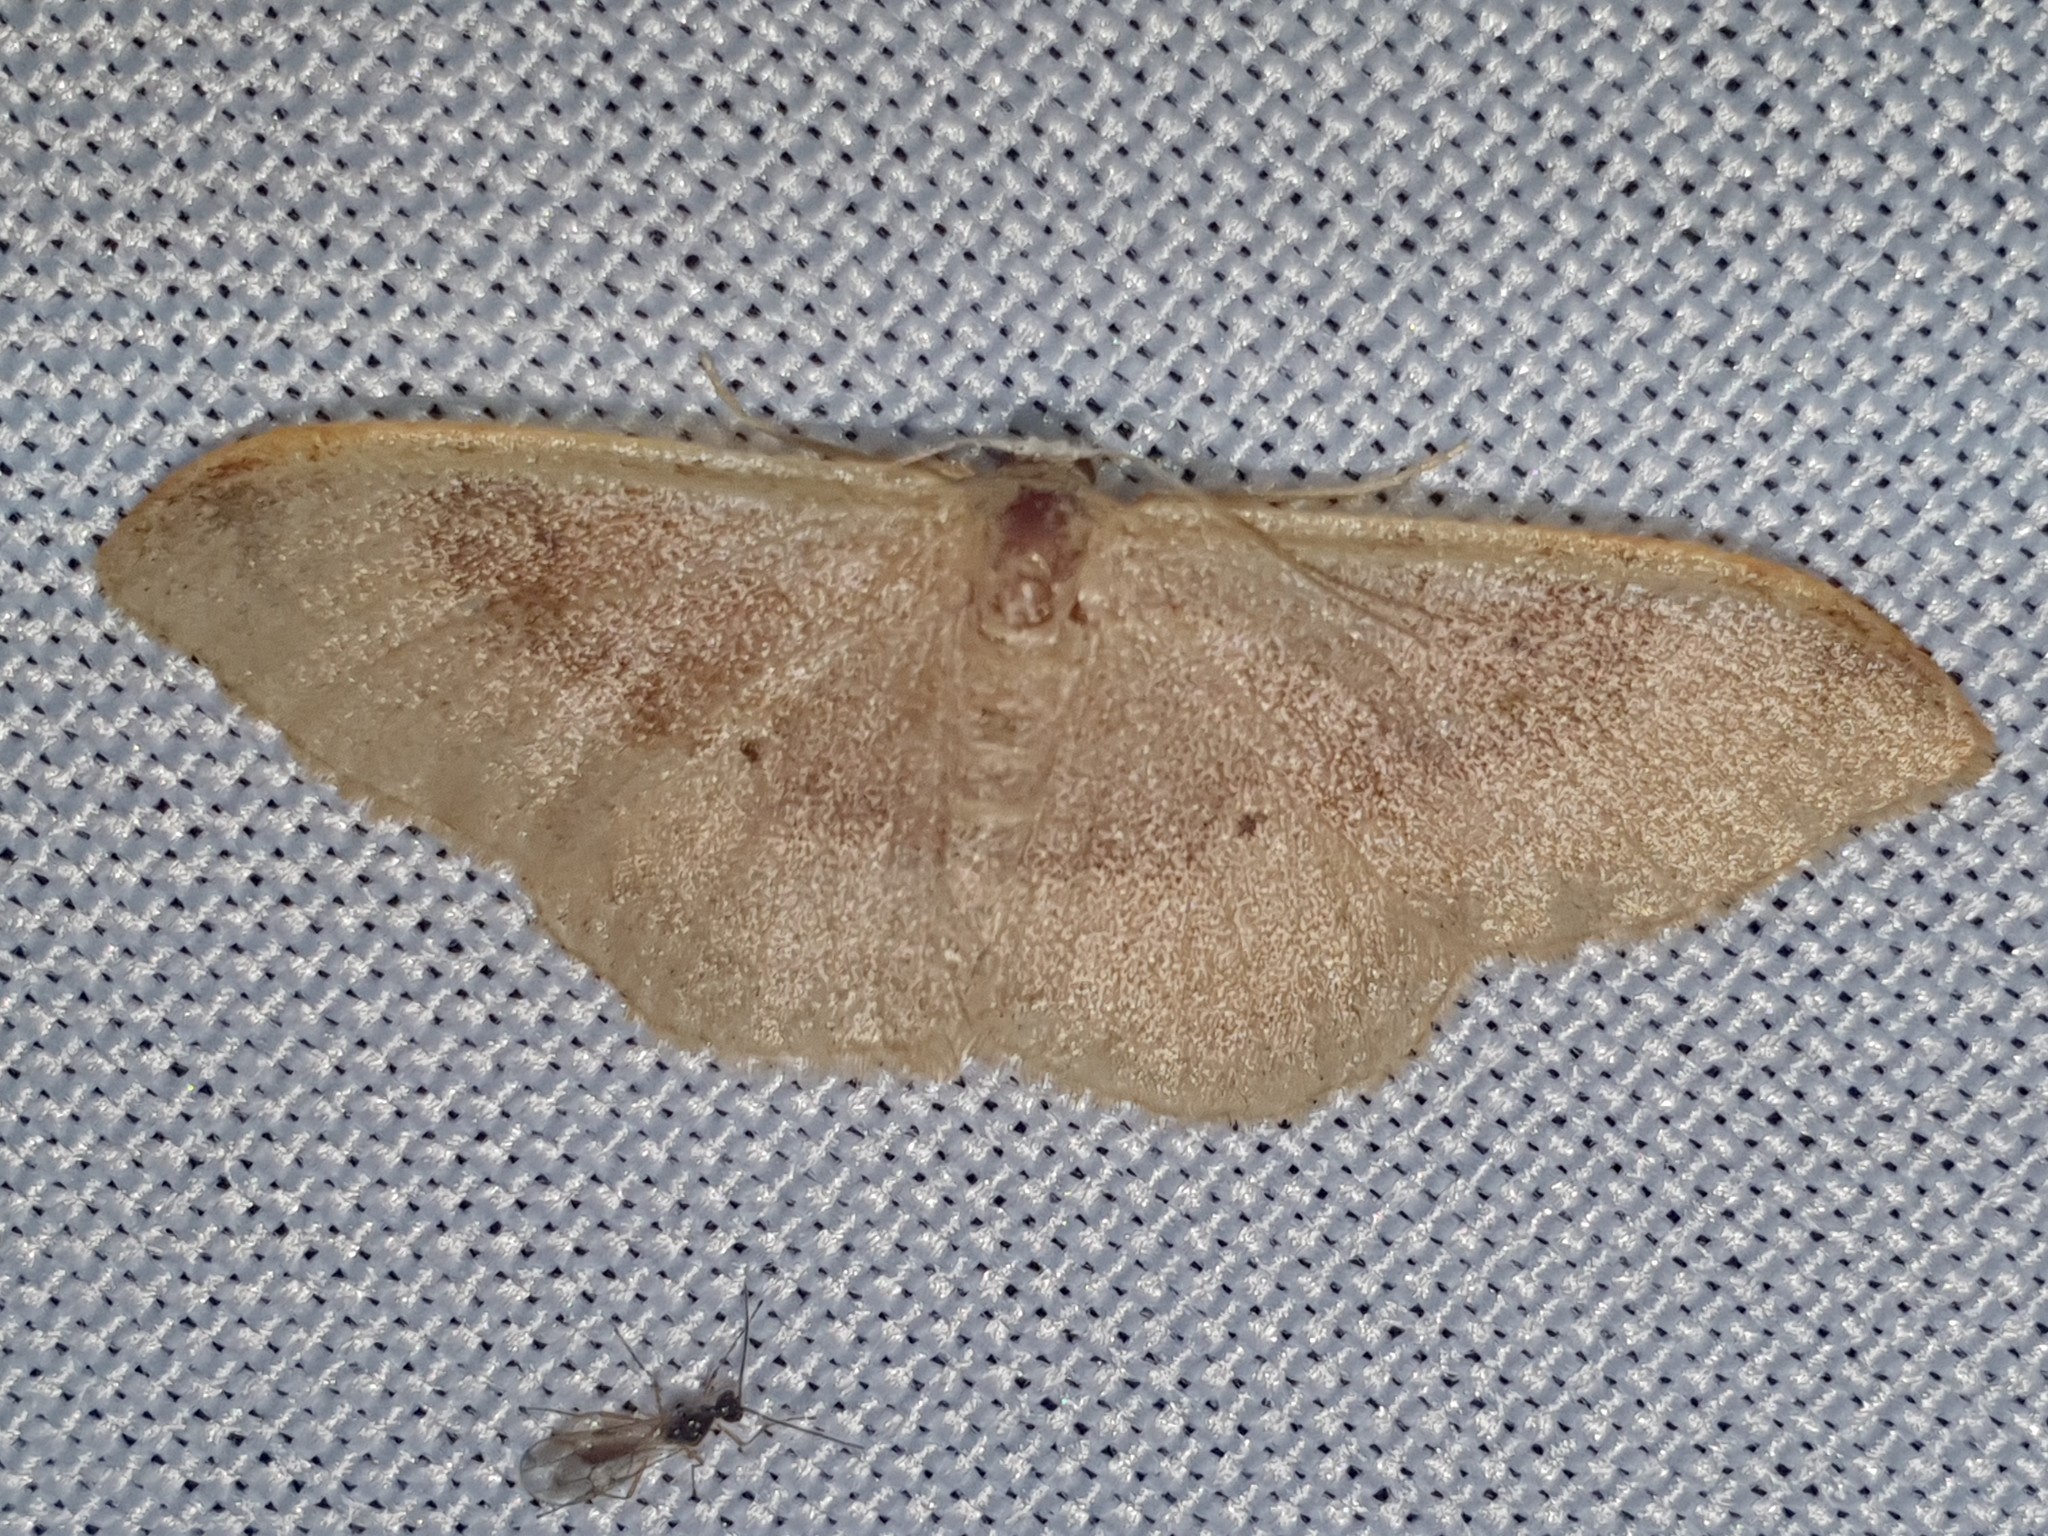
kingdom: Animalia
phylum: Arthropoda
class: Insecta
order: Lepidoptera
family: Geometridae
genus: Idaea
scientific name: Idaea degeneraria
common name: Portland ribbon wave
